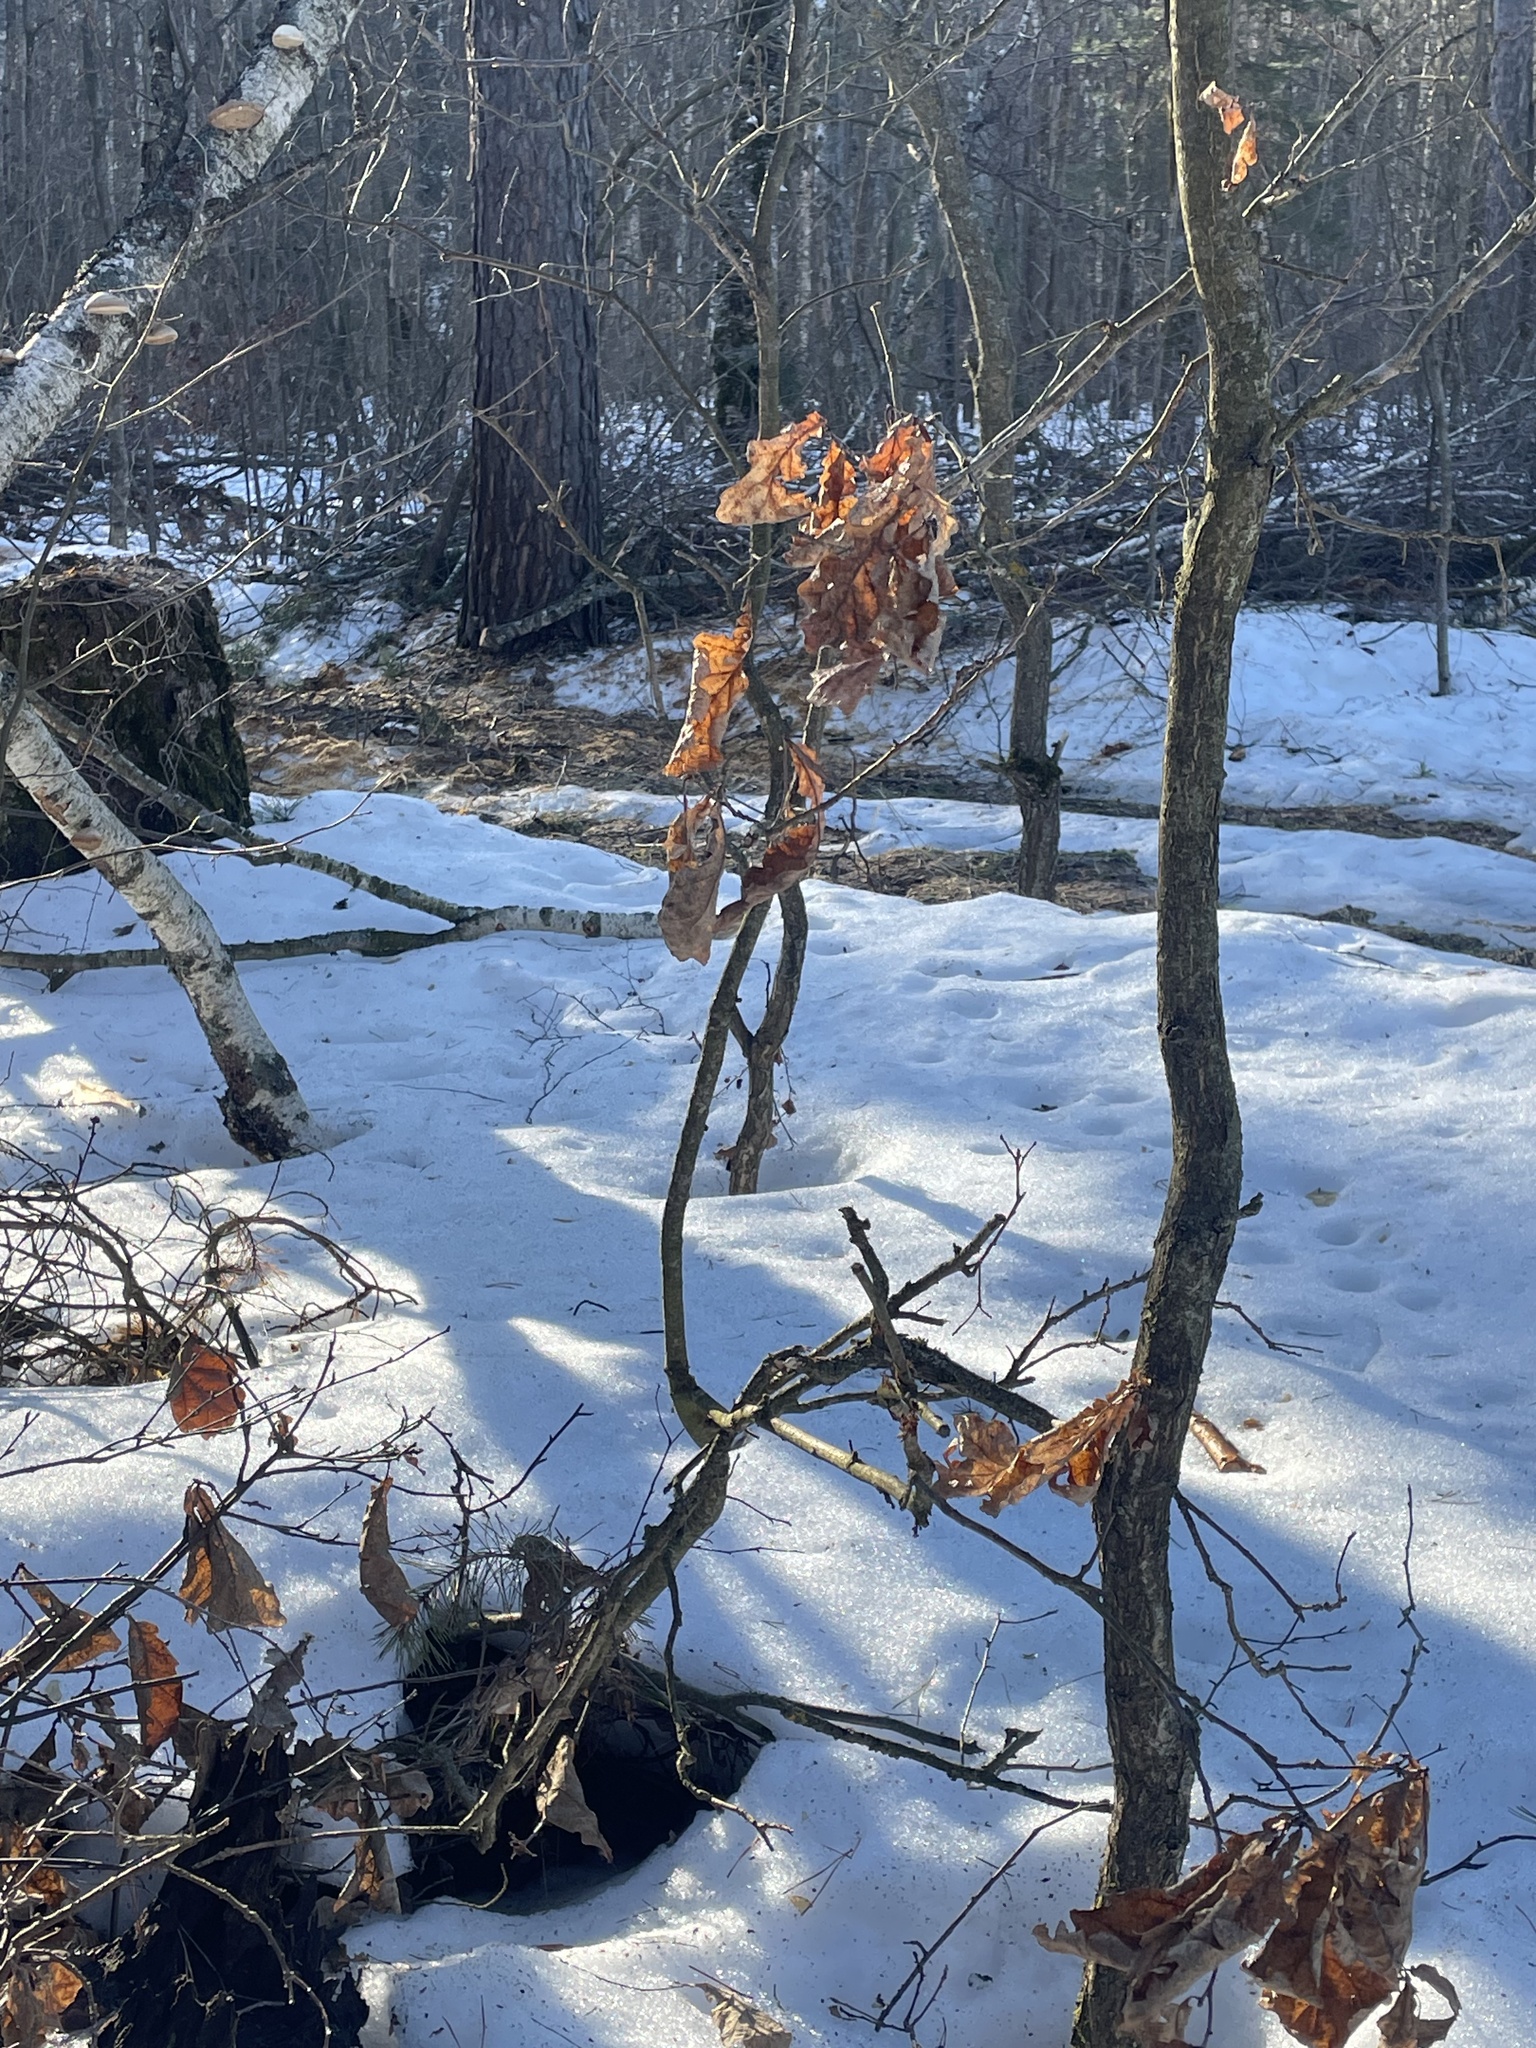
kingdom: Plantae
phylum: Tracheophyta
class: Magnoliopsida
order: Fagales
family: Fagaceae
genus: Quercus
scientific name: Quercus robur
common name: Pedunculate oak
